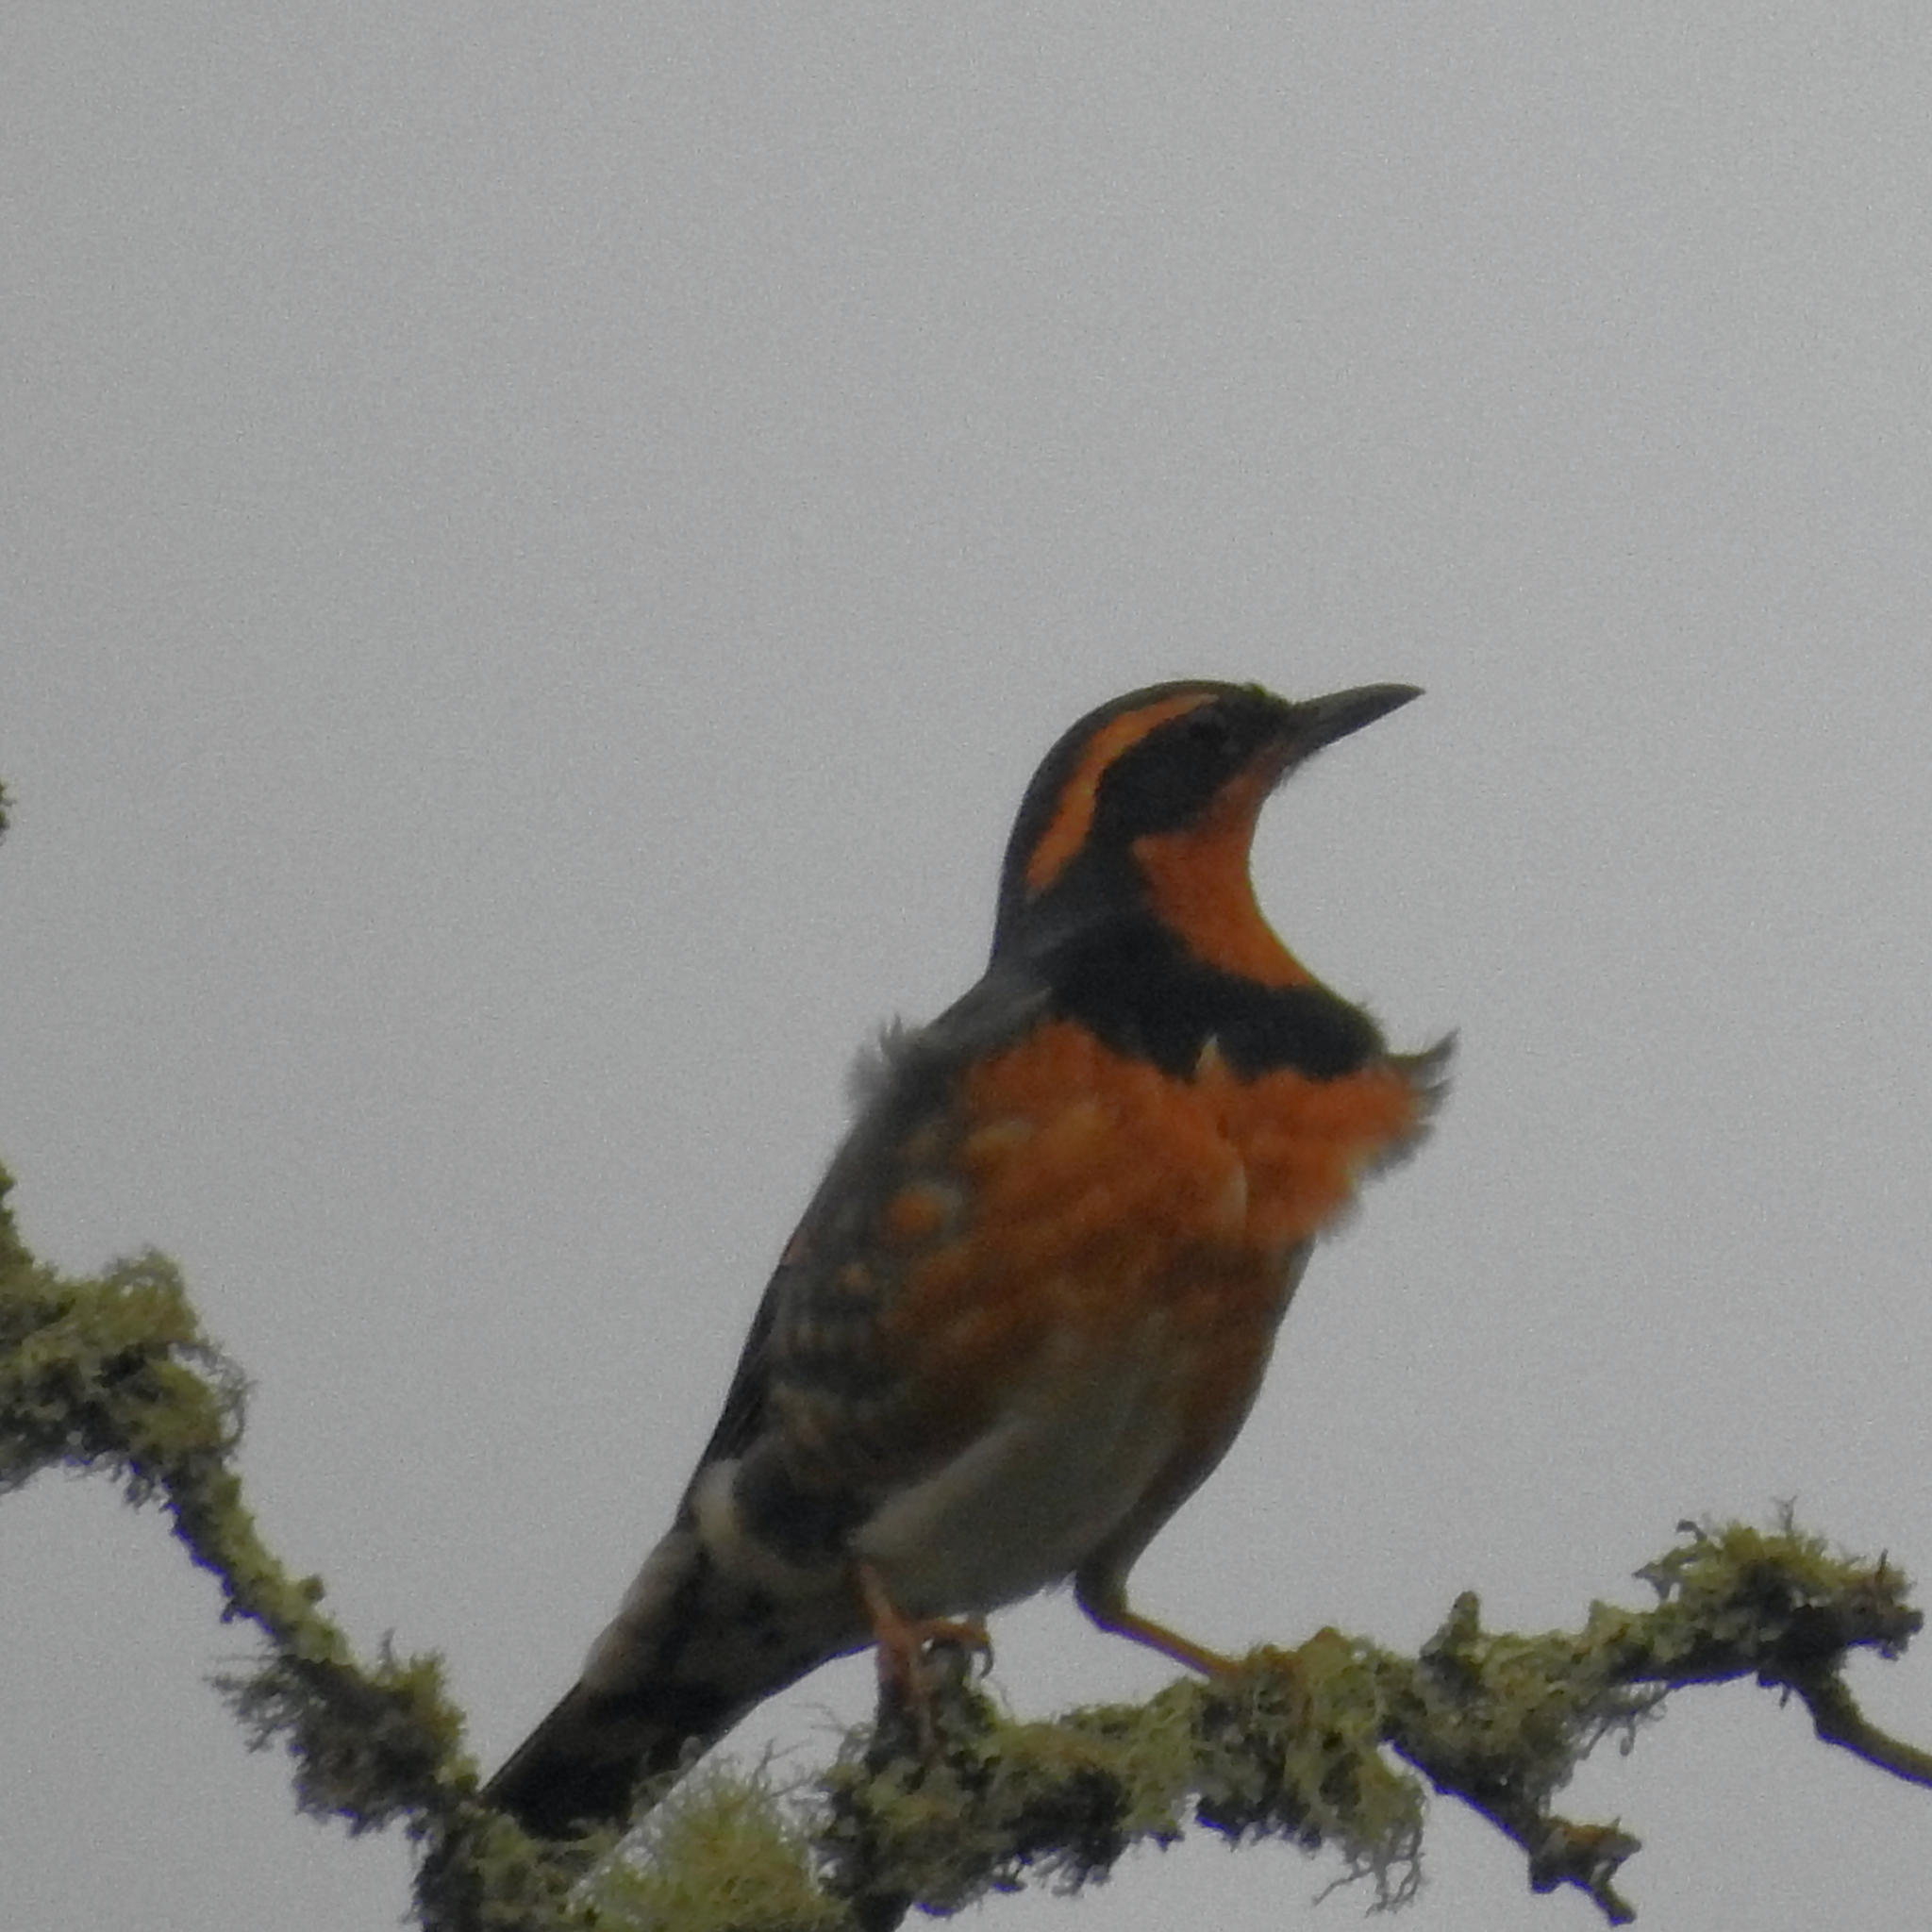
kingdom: Animalia
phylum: Chordata
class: Aves
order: Passeriformes
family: Turdidae
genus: Ixoreus
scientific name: Ixoreus naevius
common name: Varied thrush
